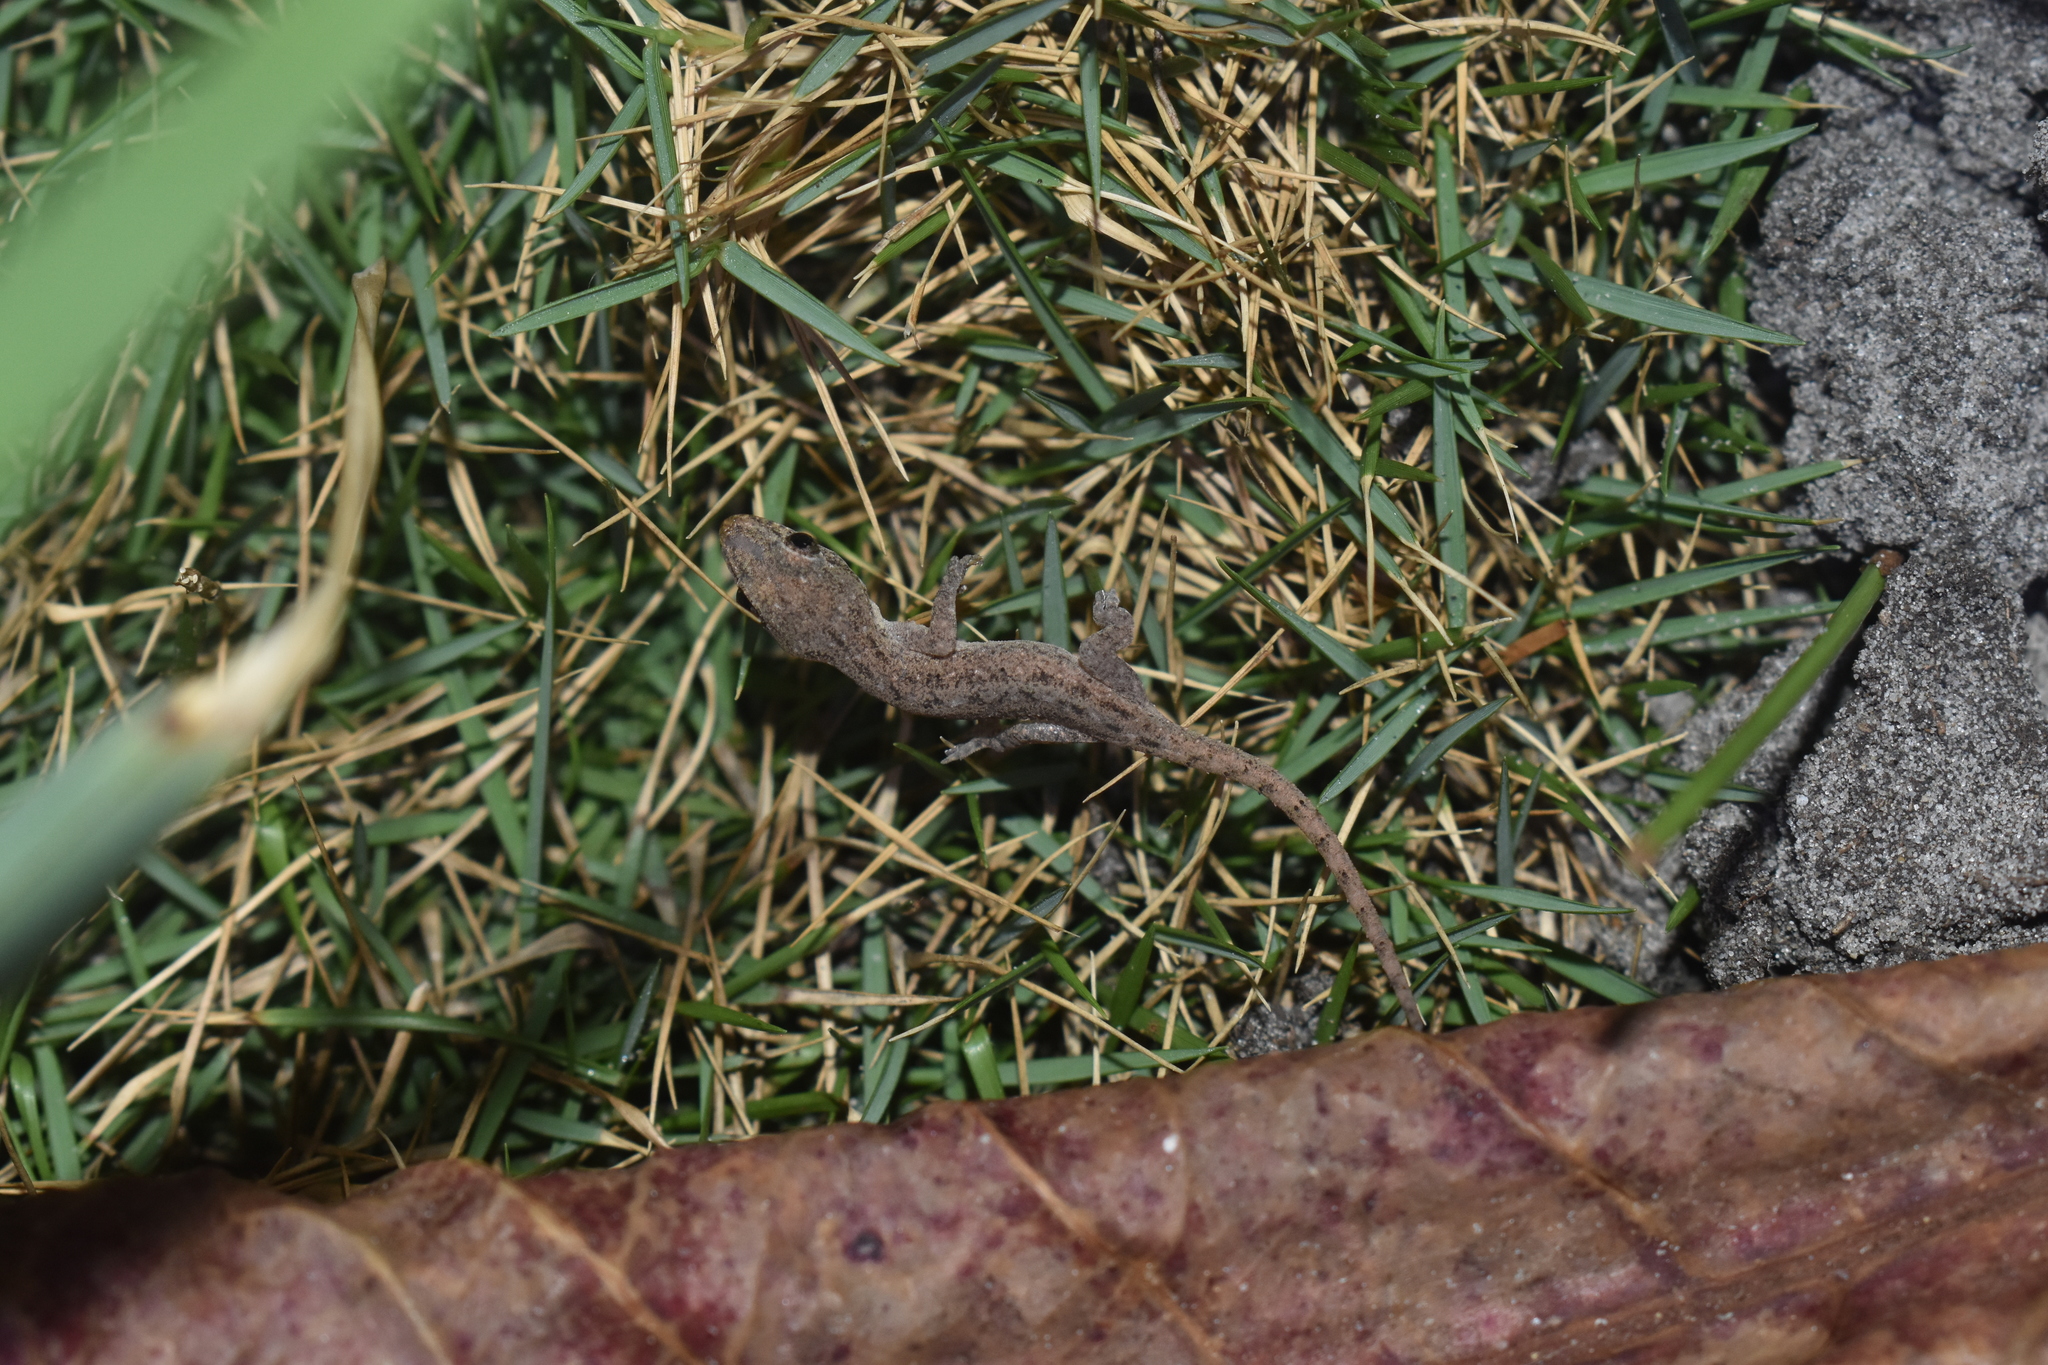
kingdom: Animalia
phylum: Chordata
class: Squamata
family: Gekkonidae
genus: Hemidactylus
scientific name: Hemidactylus frenatus
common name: Common house gecko
